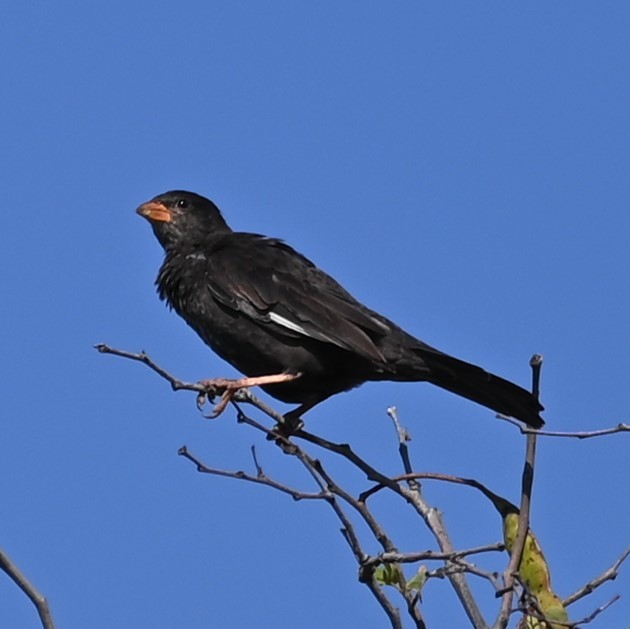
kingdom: Animalia
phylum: Chordata
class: Aves
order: Passeriformes
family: Ploceidae
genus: Bubalornis
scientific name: Bubalornis niger
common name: Red-billed buffalo weaver
